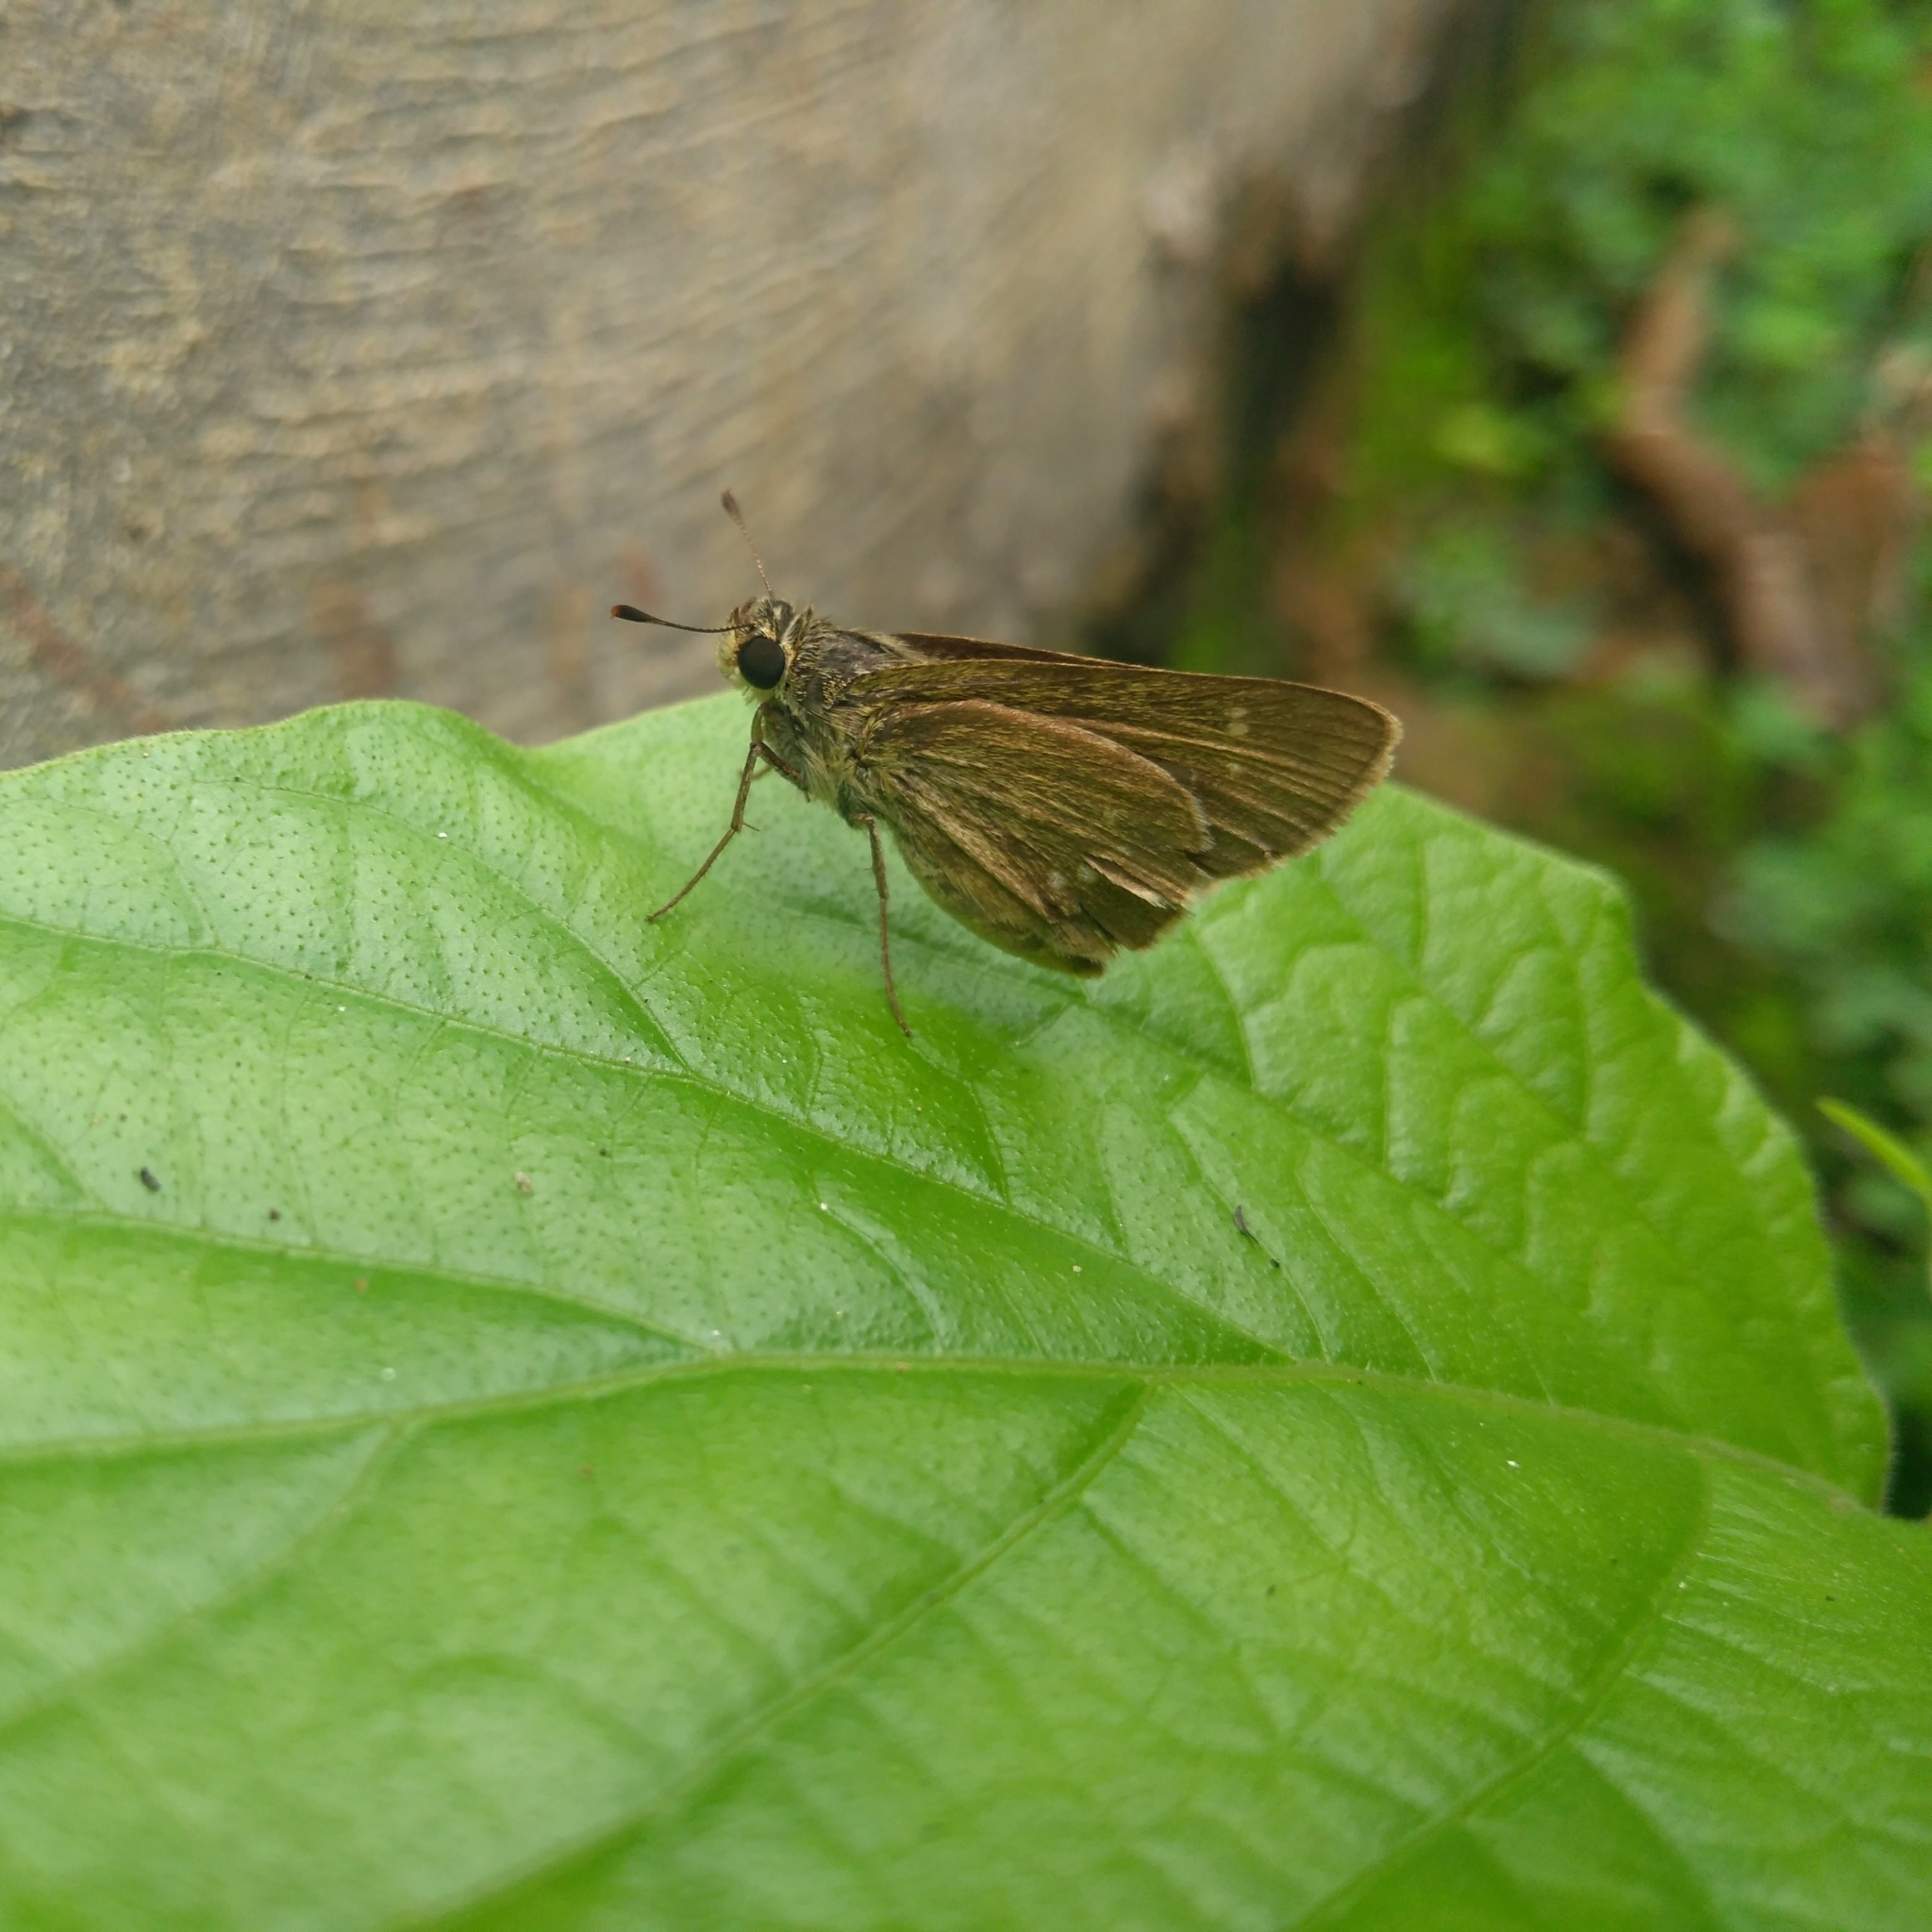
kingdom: Animalia
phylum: Arthropoda
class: Insecta
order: Lepidoptera
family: Hesperiidae
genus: Suastus
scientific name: Suastus gremius
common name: Indian palm bob
